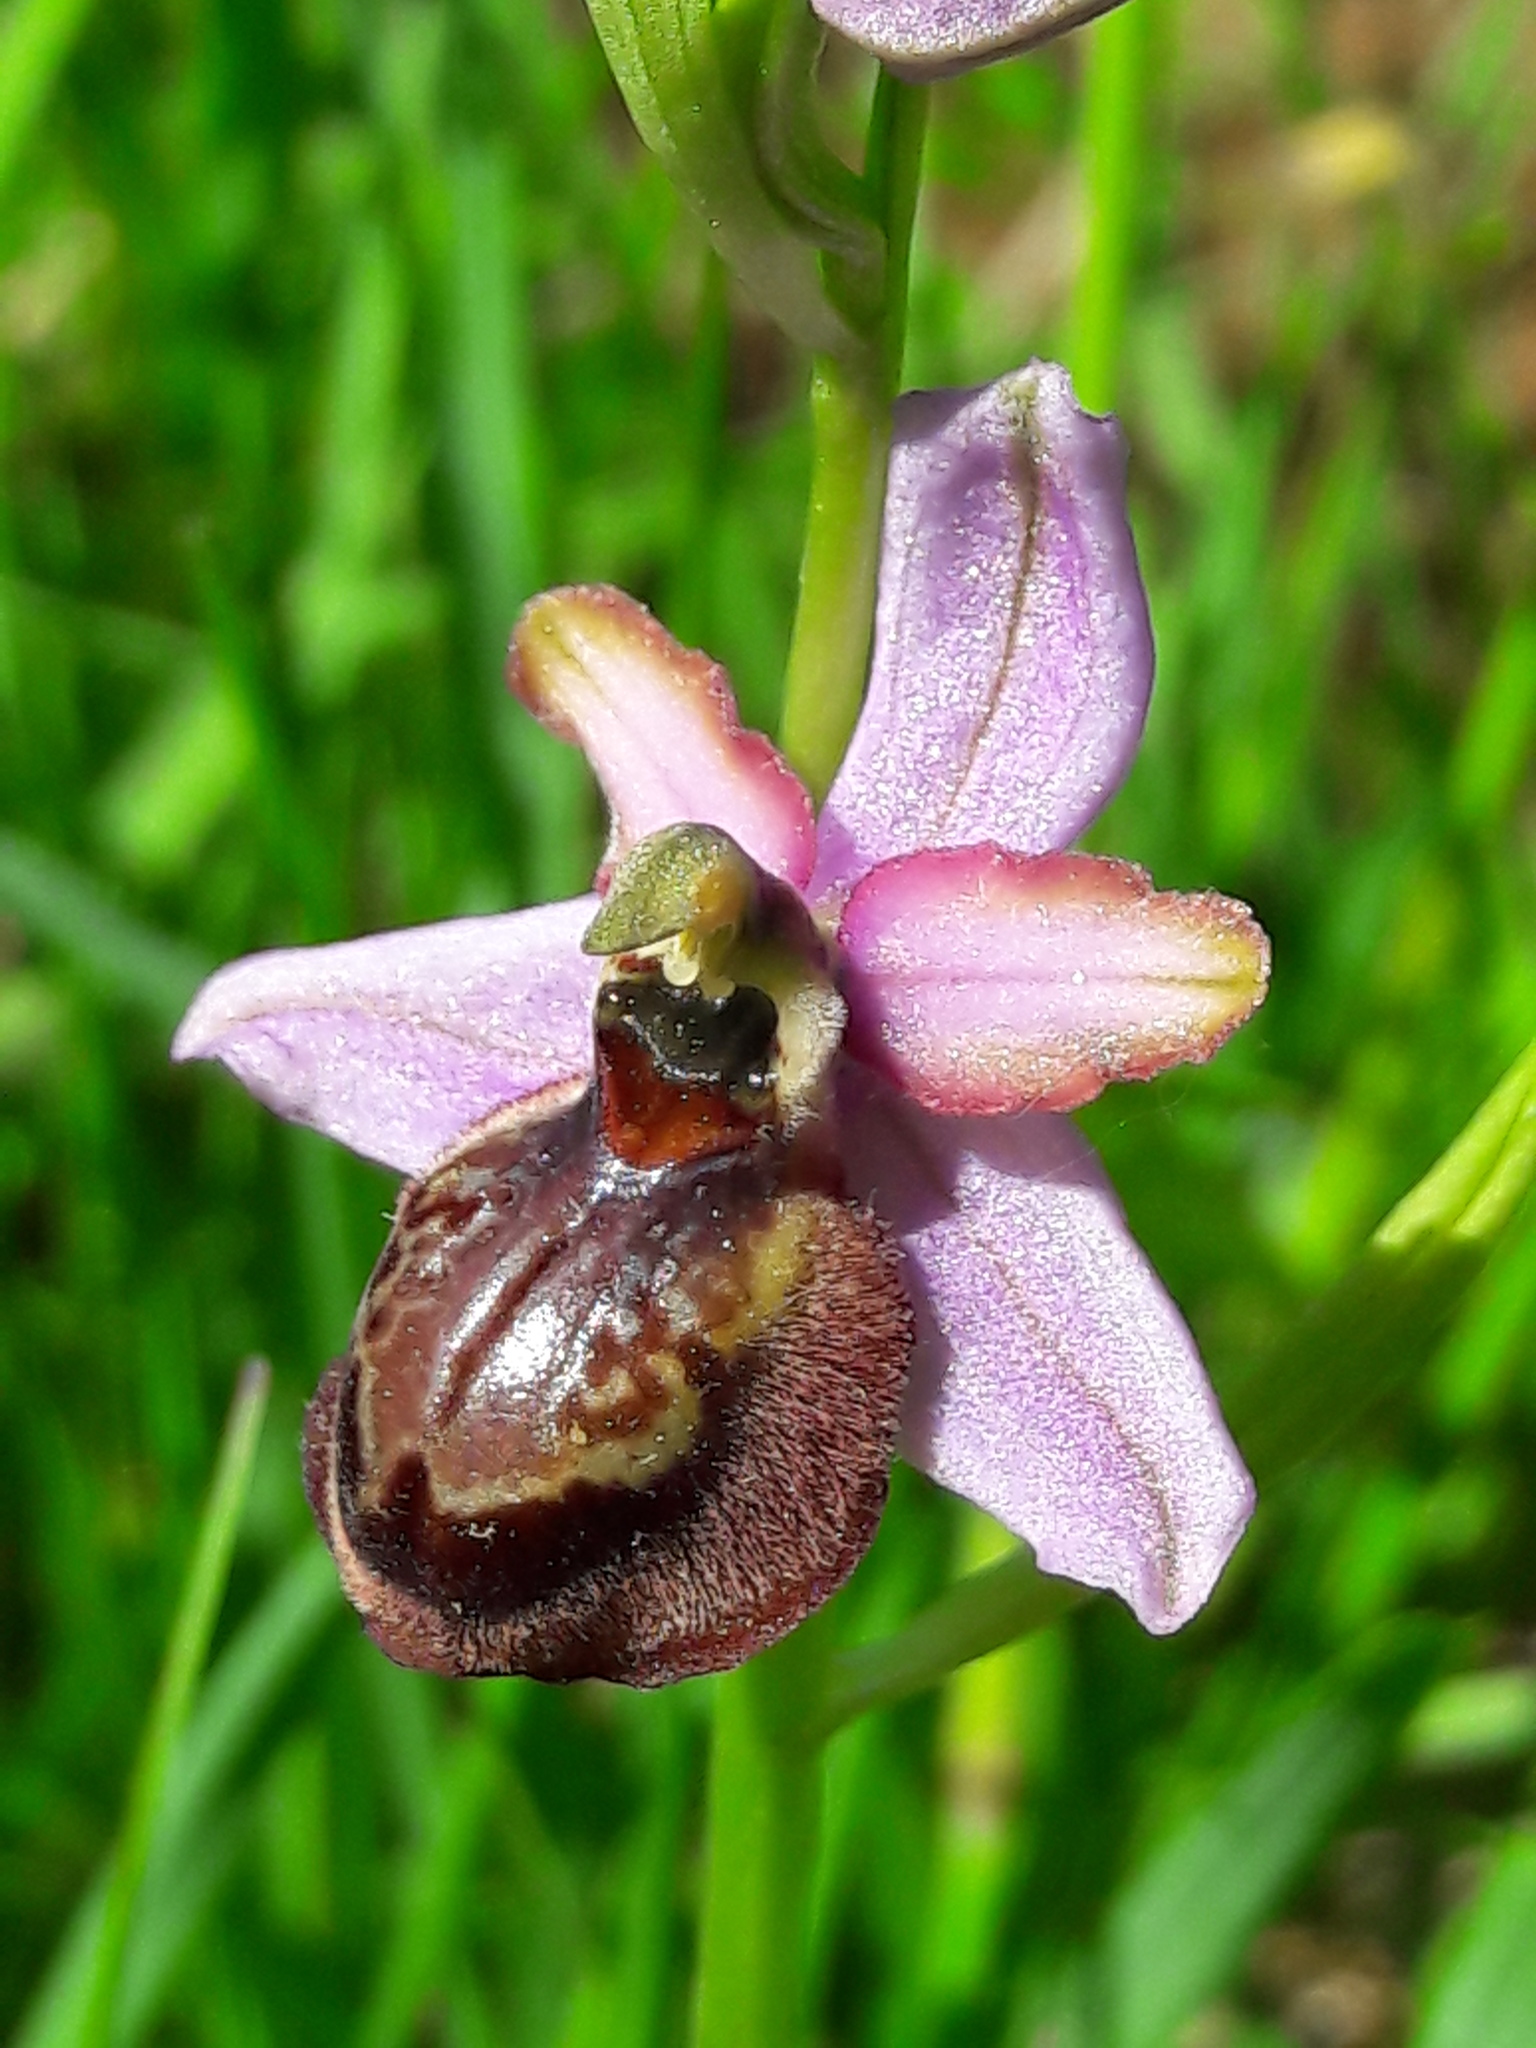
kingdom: Plantae
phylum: Tracheophyta
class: Liliopsida
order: Asparagales
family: Orchidaceae
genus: Ophrys
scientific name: Ophrys sphegodes
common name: Early spider-orchid
